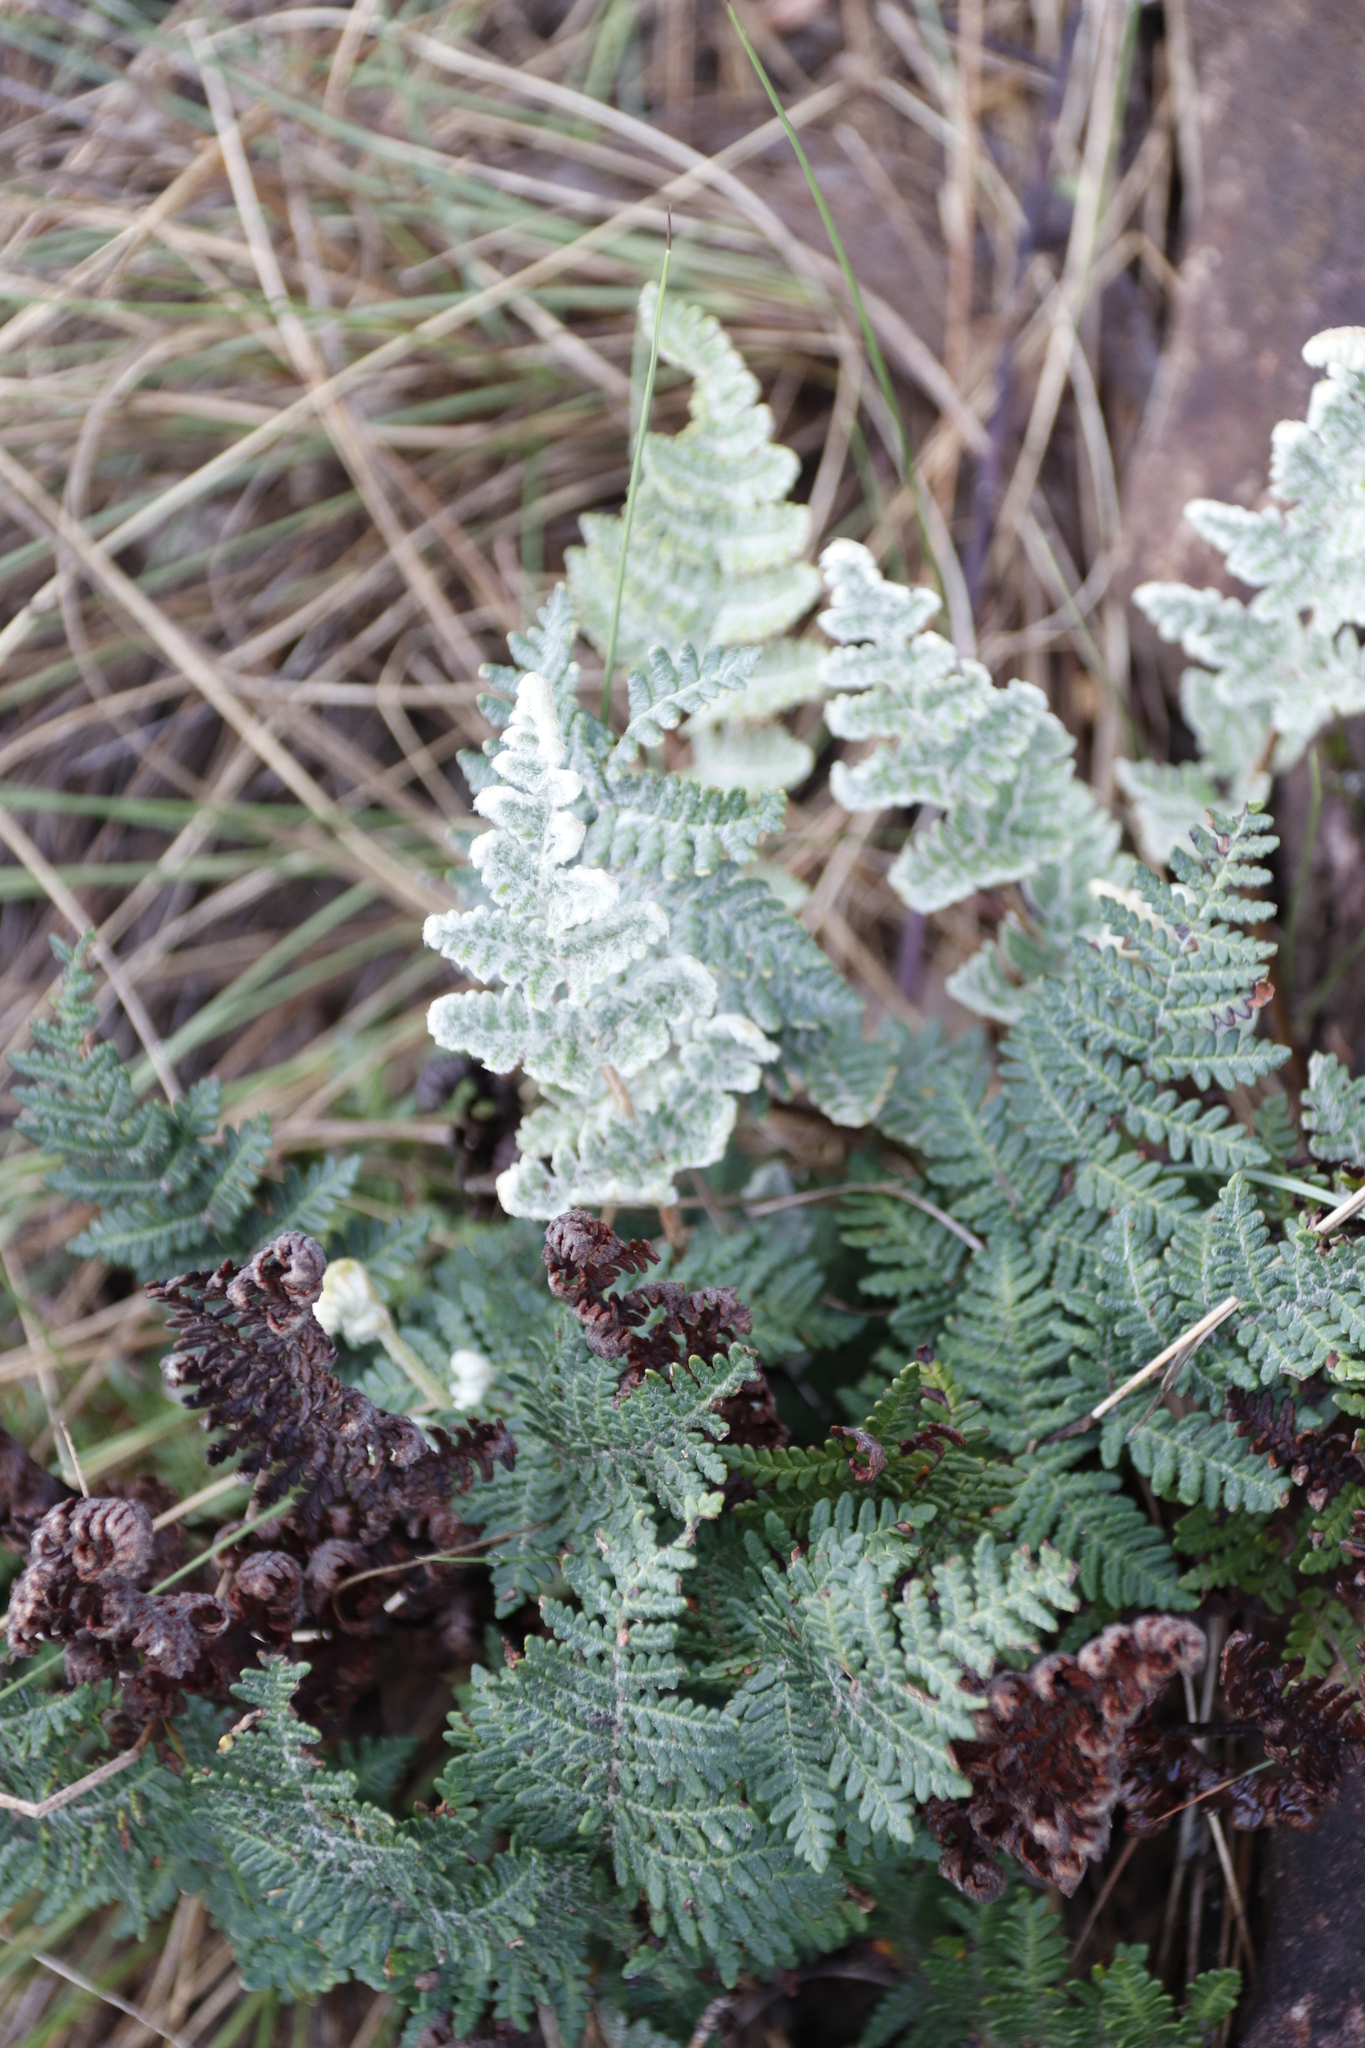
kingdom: Plantae
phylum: Tracheophyta
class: Polypodiopsida
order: Polypodiales
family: Pteridaceae
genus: Cheilanthes
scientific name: Cheilanthes eckloniana
